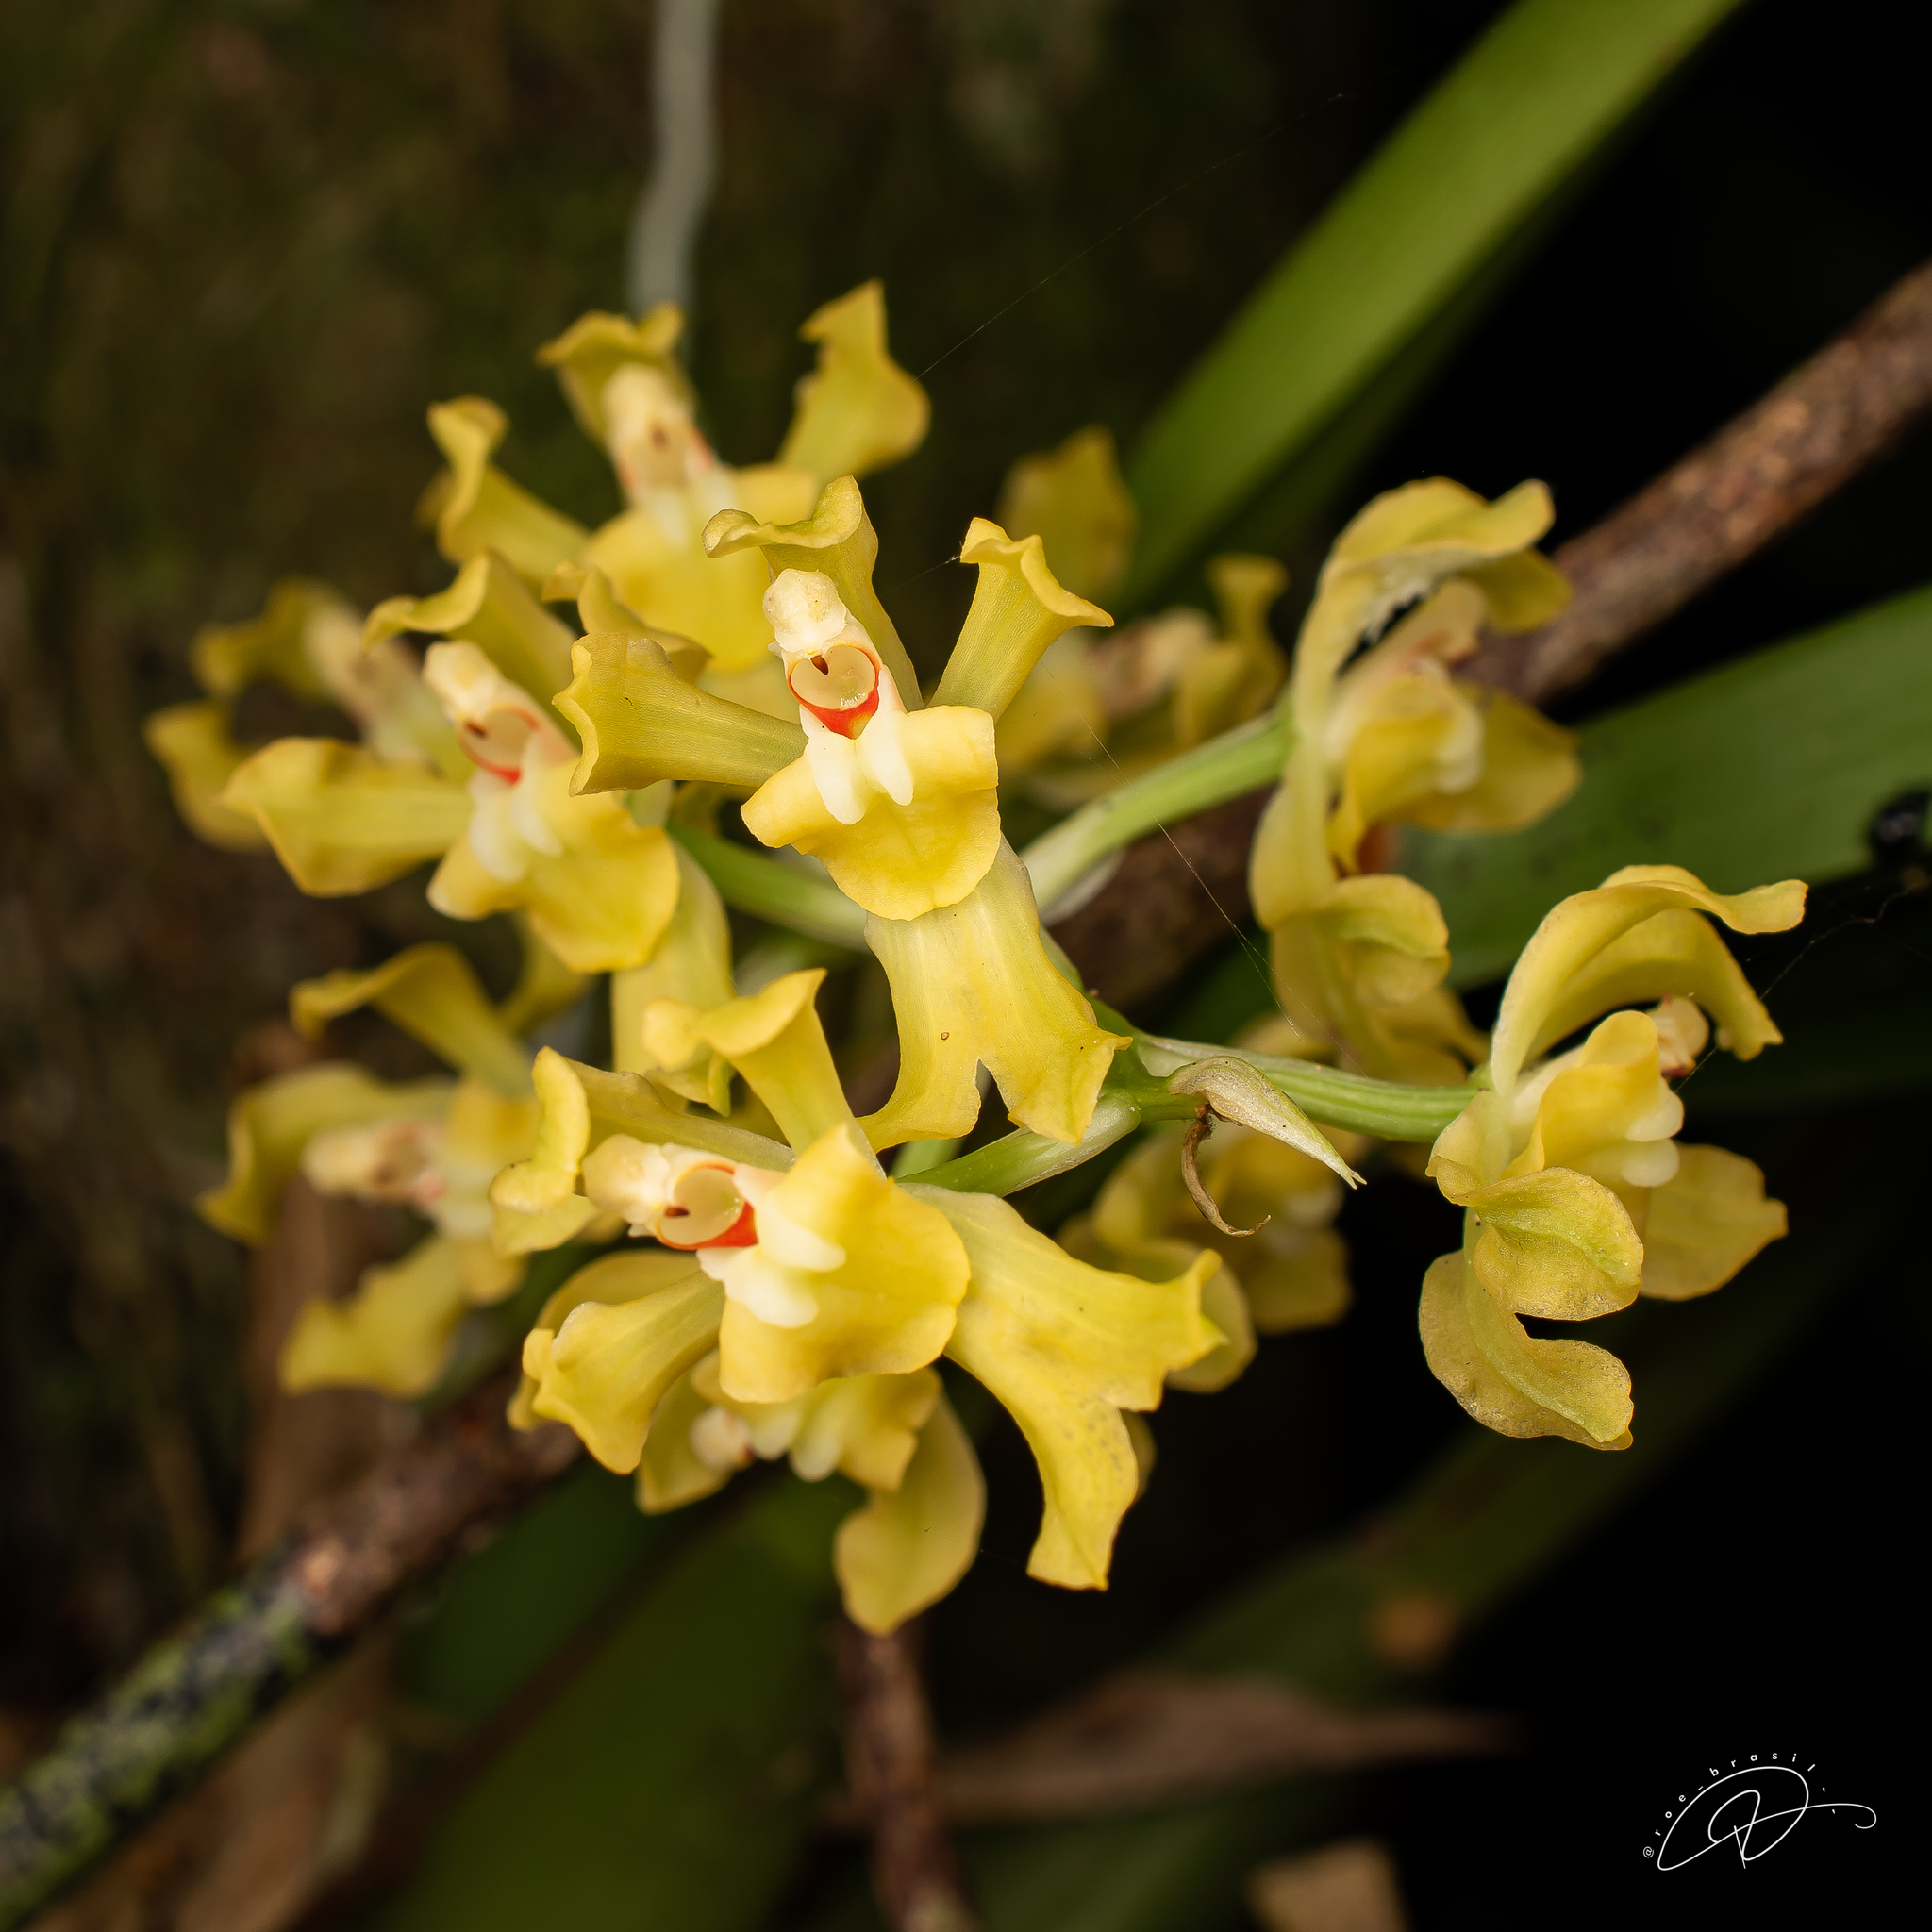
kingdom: Plantae
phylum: Tracheophyta
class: Liliopsida
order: Asparagales
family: Orchidaceae
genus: Gomesa
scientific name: Gomesa planifolia
